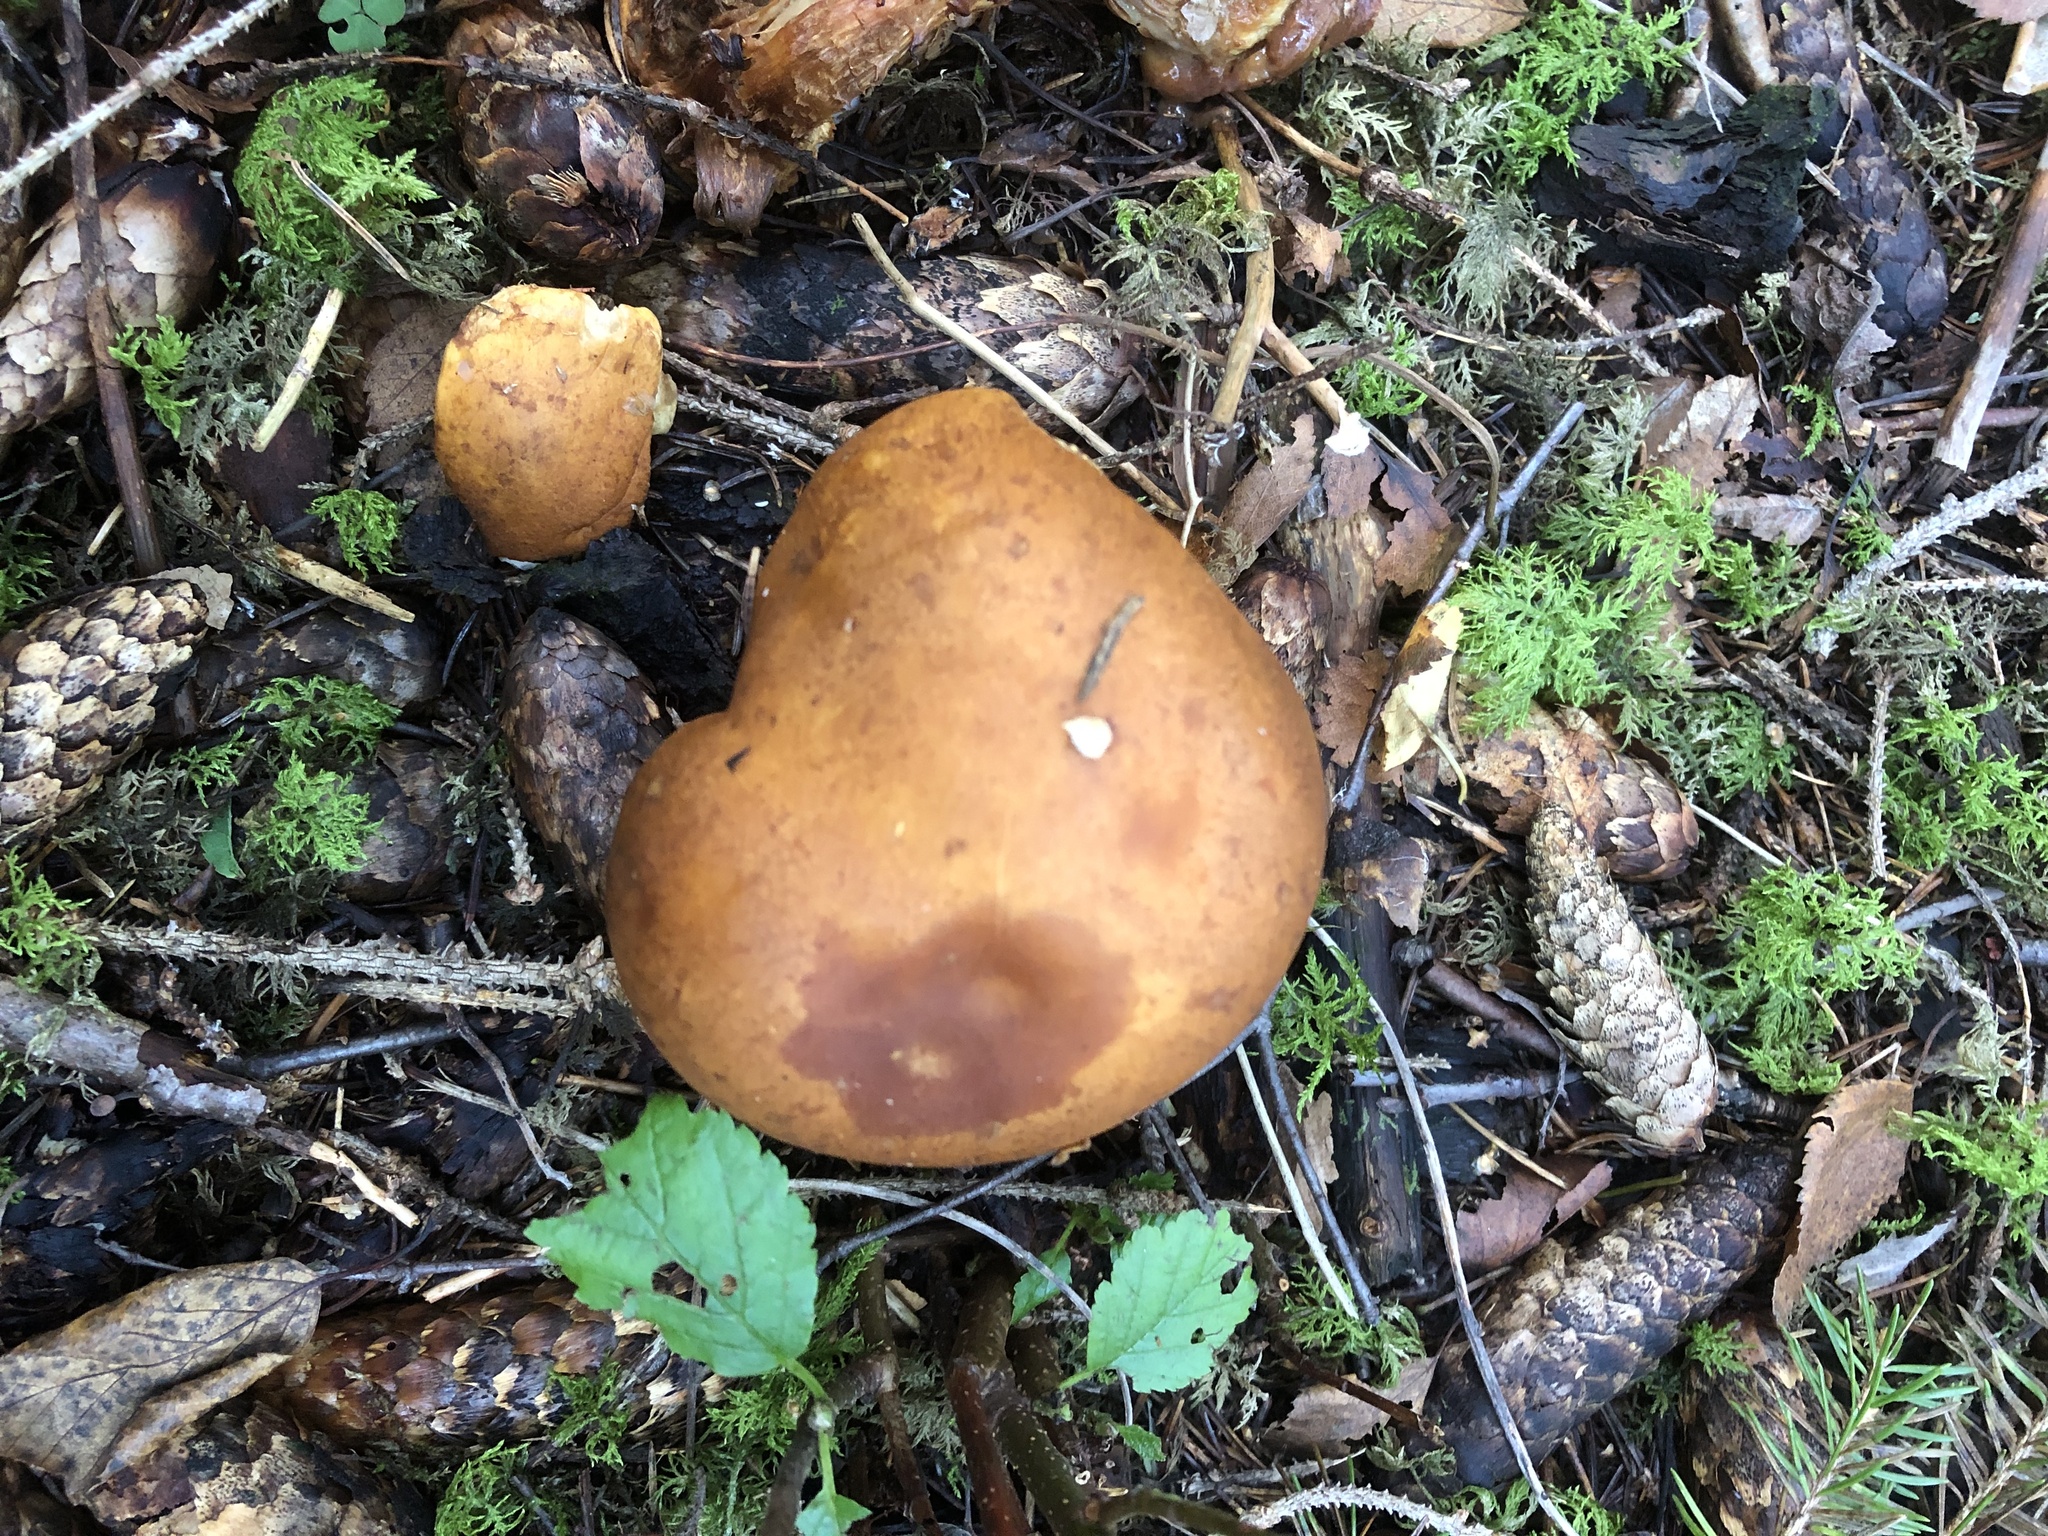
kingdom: Fungi
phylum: Basidiomycota
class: Agaricomycetes
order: Agaricales
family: Cortinariaceae
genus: Phlegmacium
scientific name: Phlegmacium saginum
